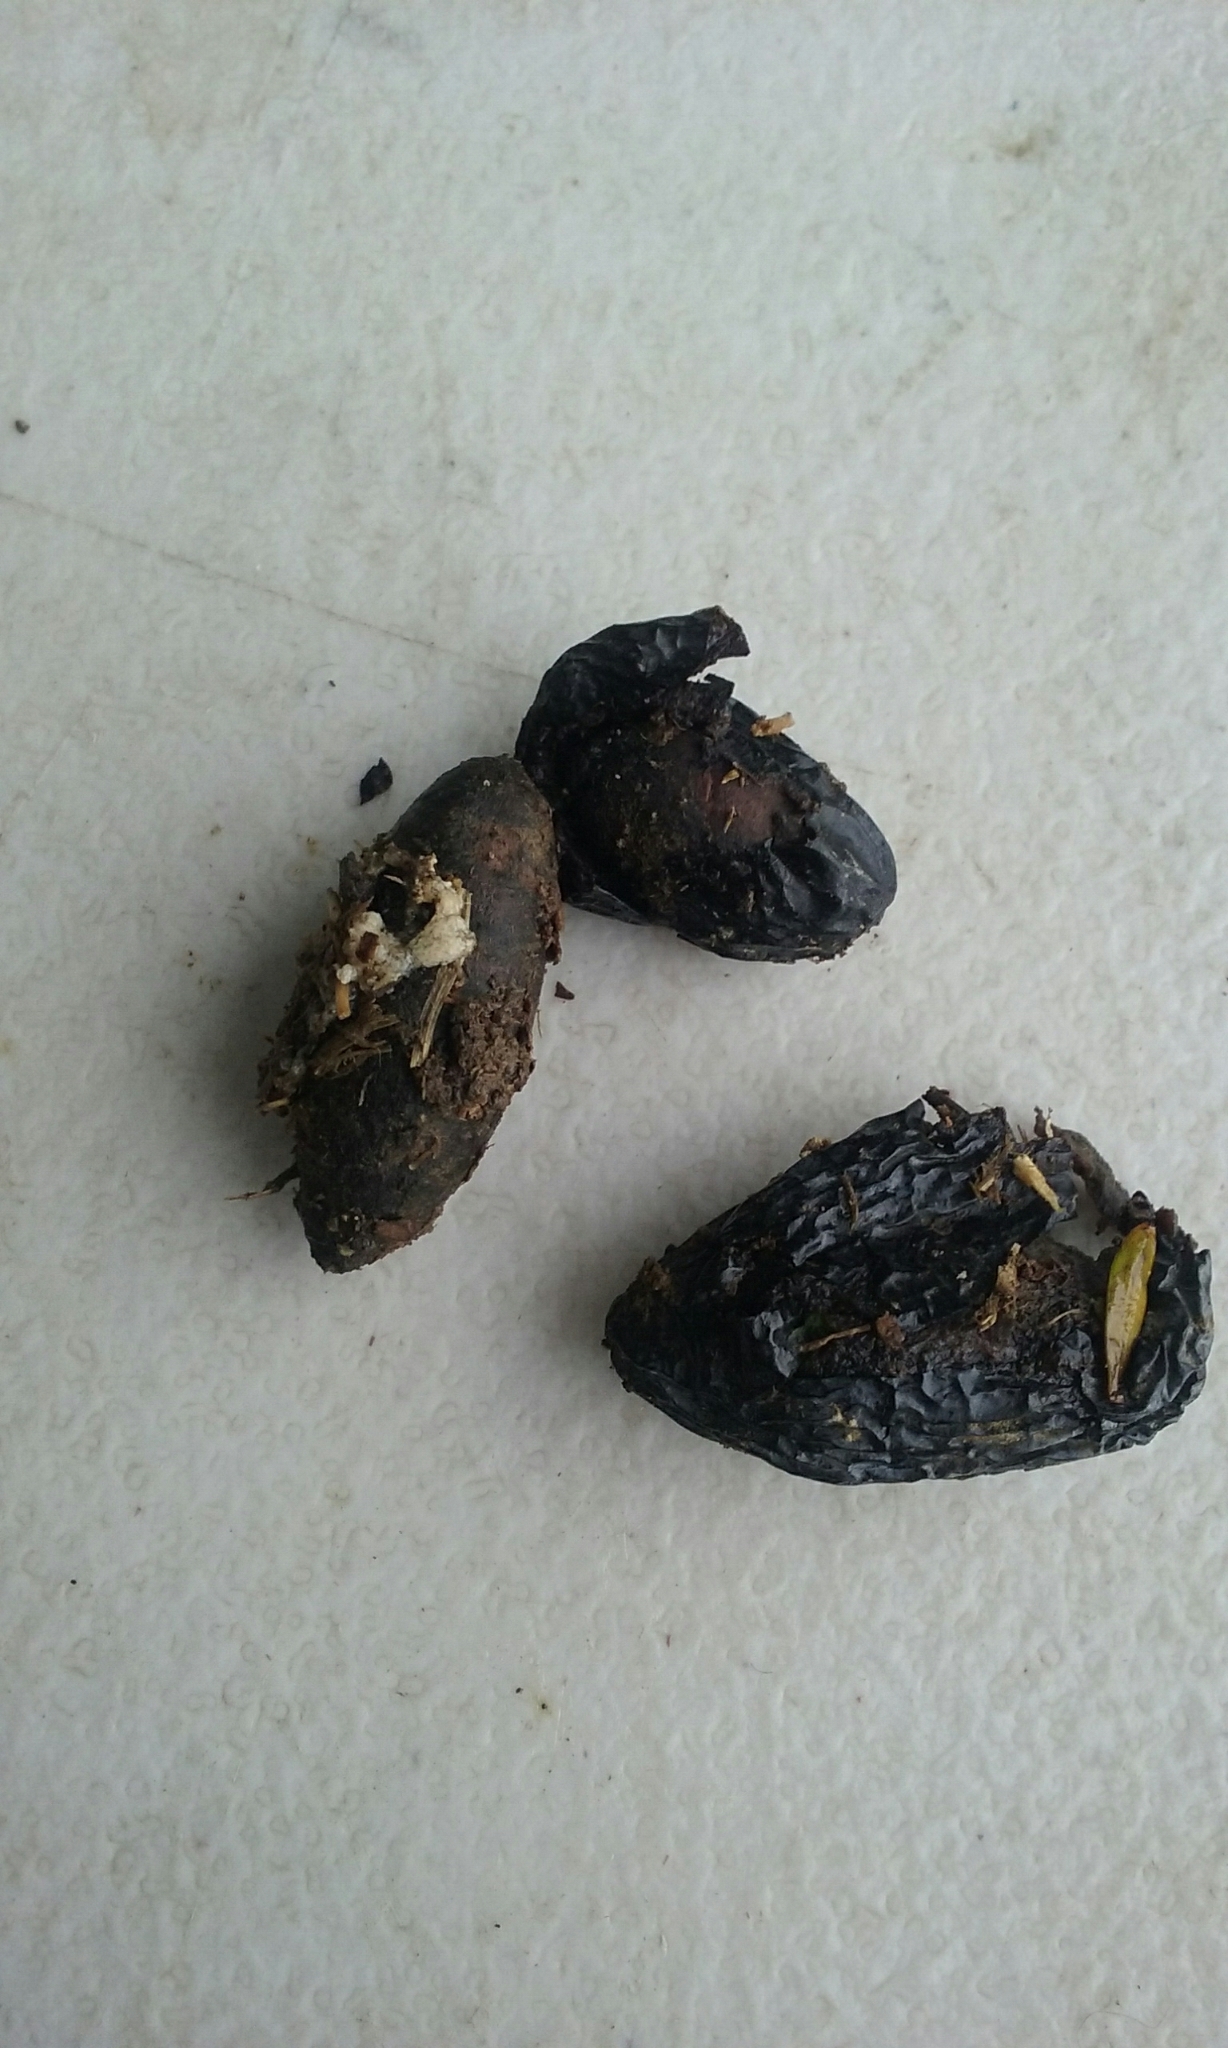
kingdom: Plantae
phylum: Tracheophyta
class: Magnoliopsida
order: Laurales
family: Lauraceae
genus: Beilschmiedia
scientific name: Beilschmiedia tawa
